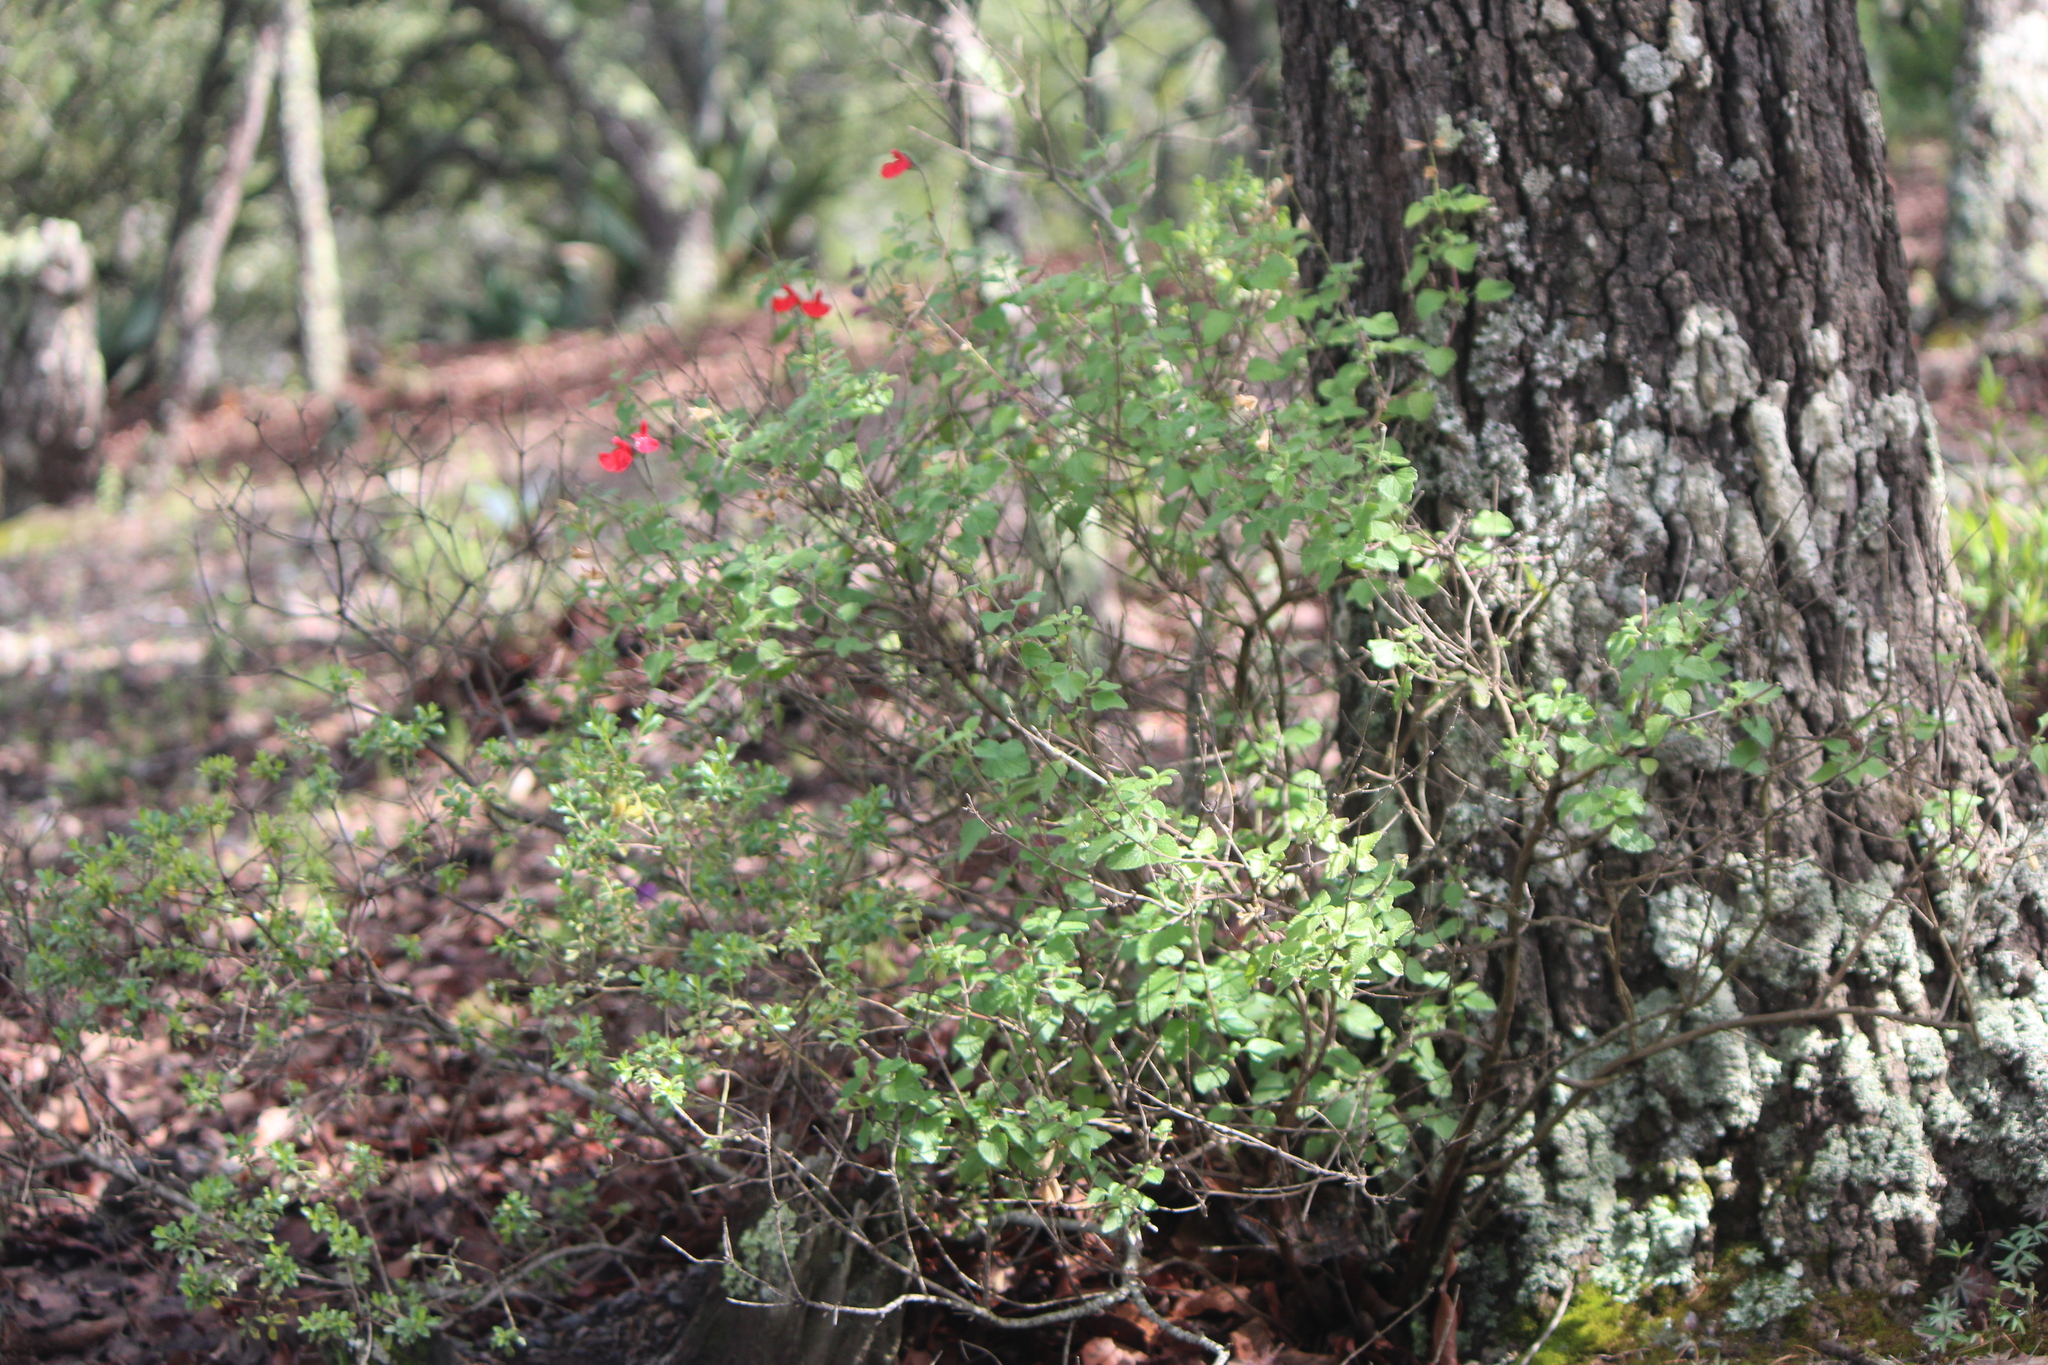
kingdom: Plantae
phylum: Tracheophyta
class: Magnoliopsida
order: Lamiales
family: Lamiaceae
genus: Salvia
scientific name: Salvia microphylla
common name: Baby sage
